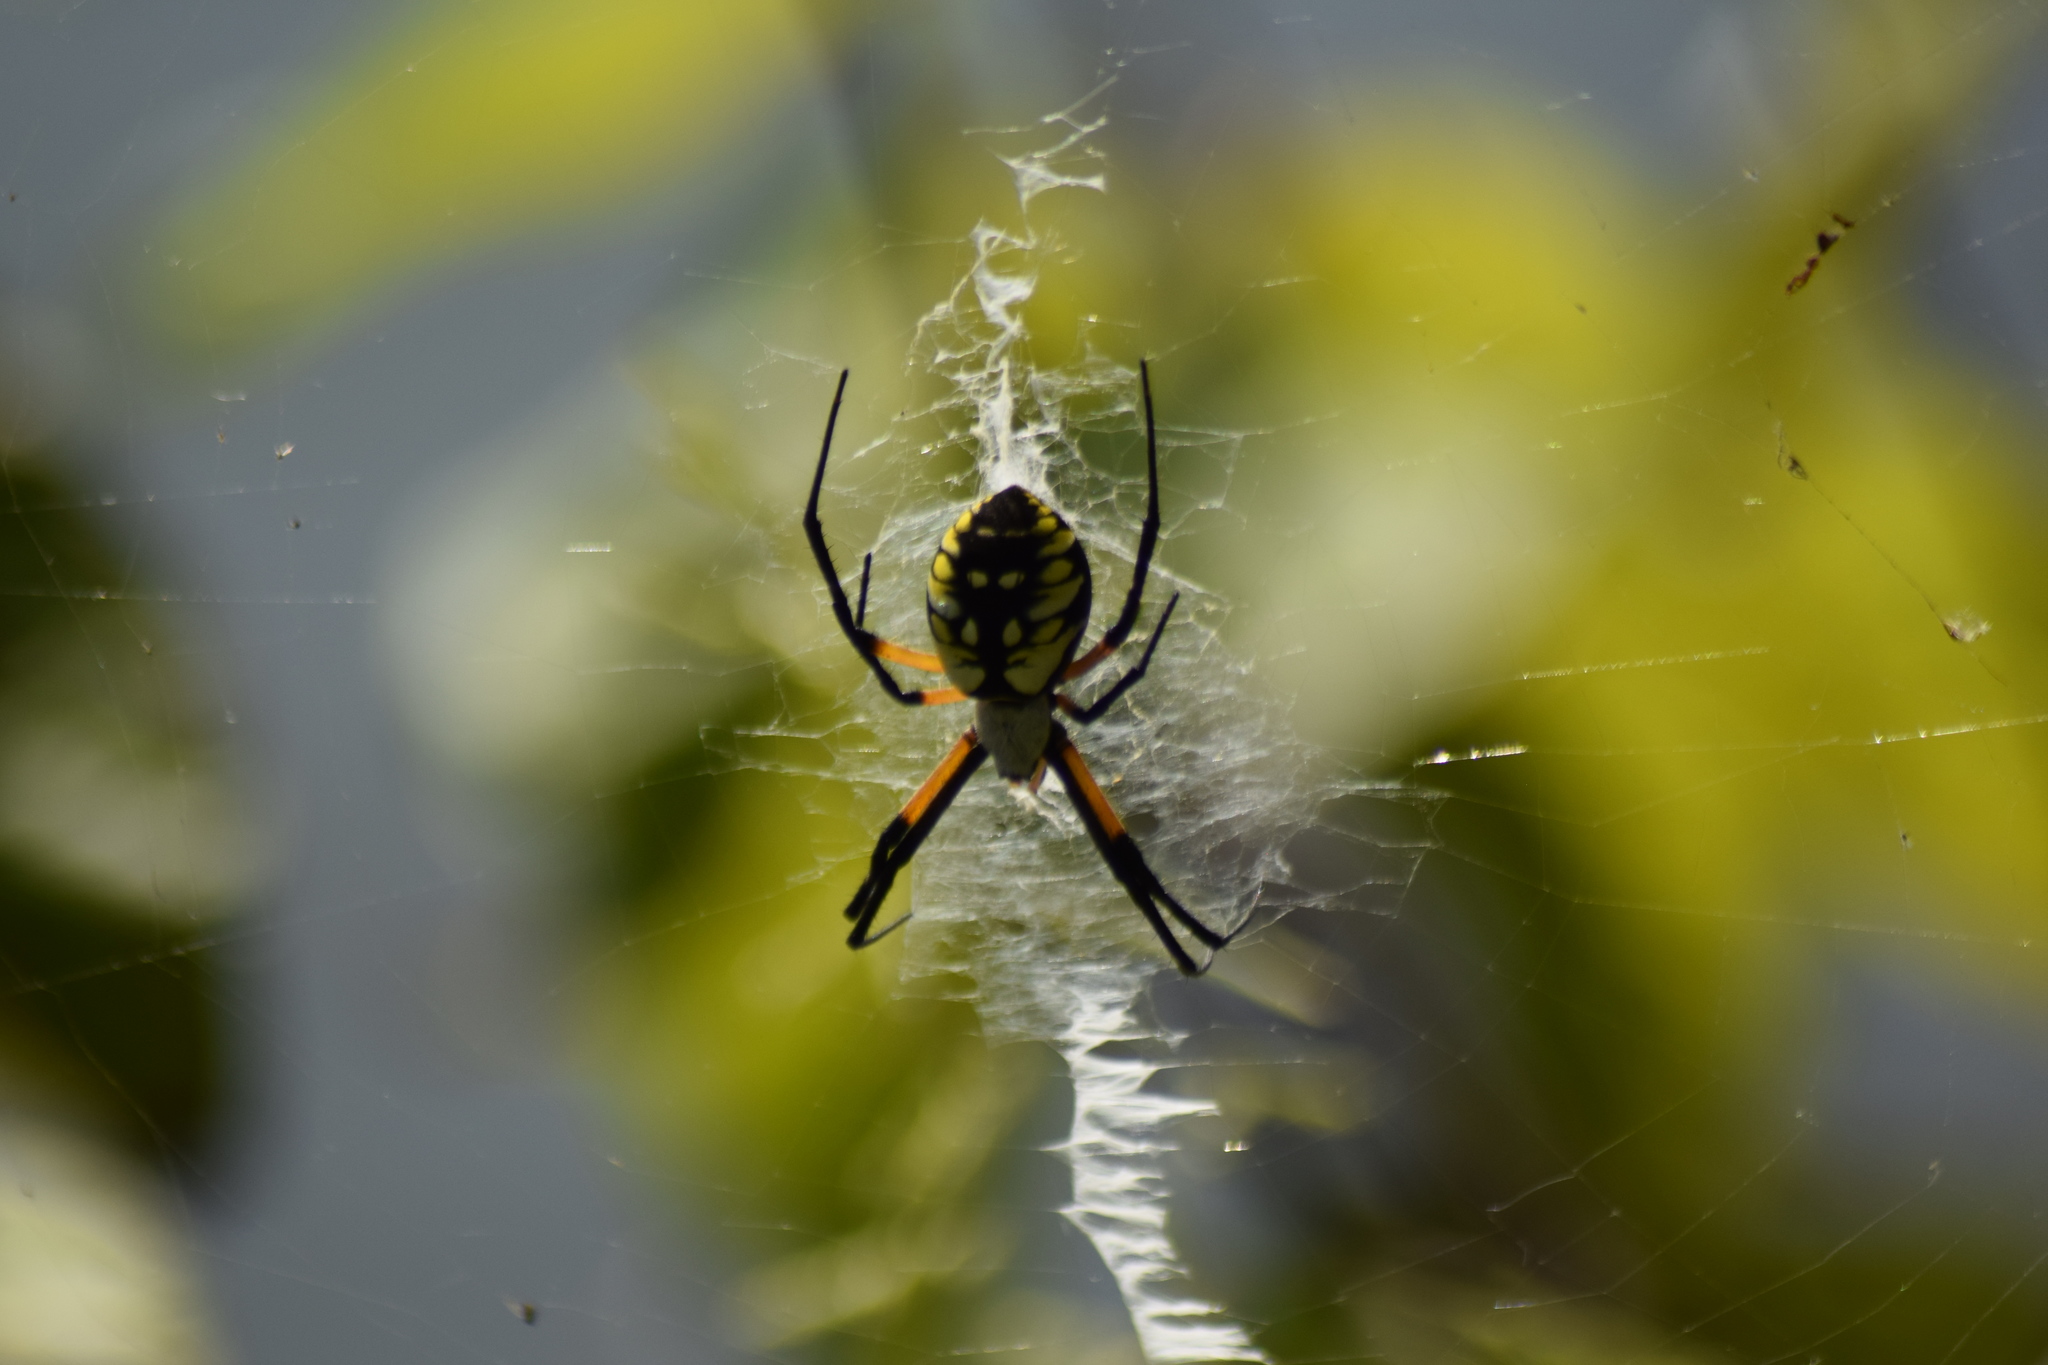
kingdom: Animalia
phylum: Arthropoda
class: Arachnida
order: Araneae
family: Araneidae
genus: Argiope
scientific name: Argiope aurantia
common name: Orb weavers
